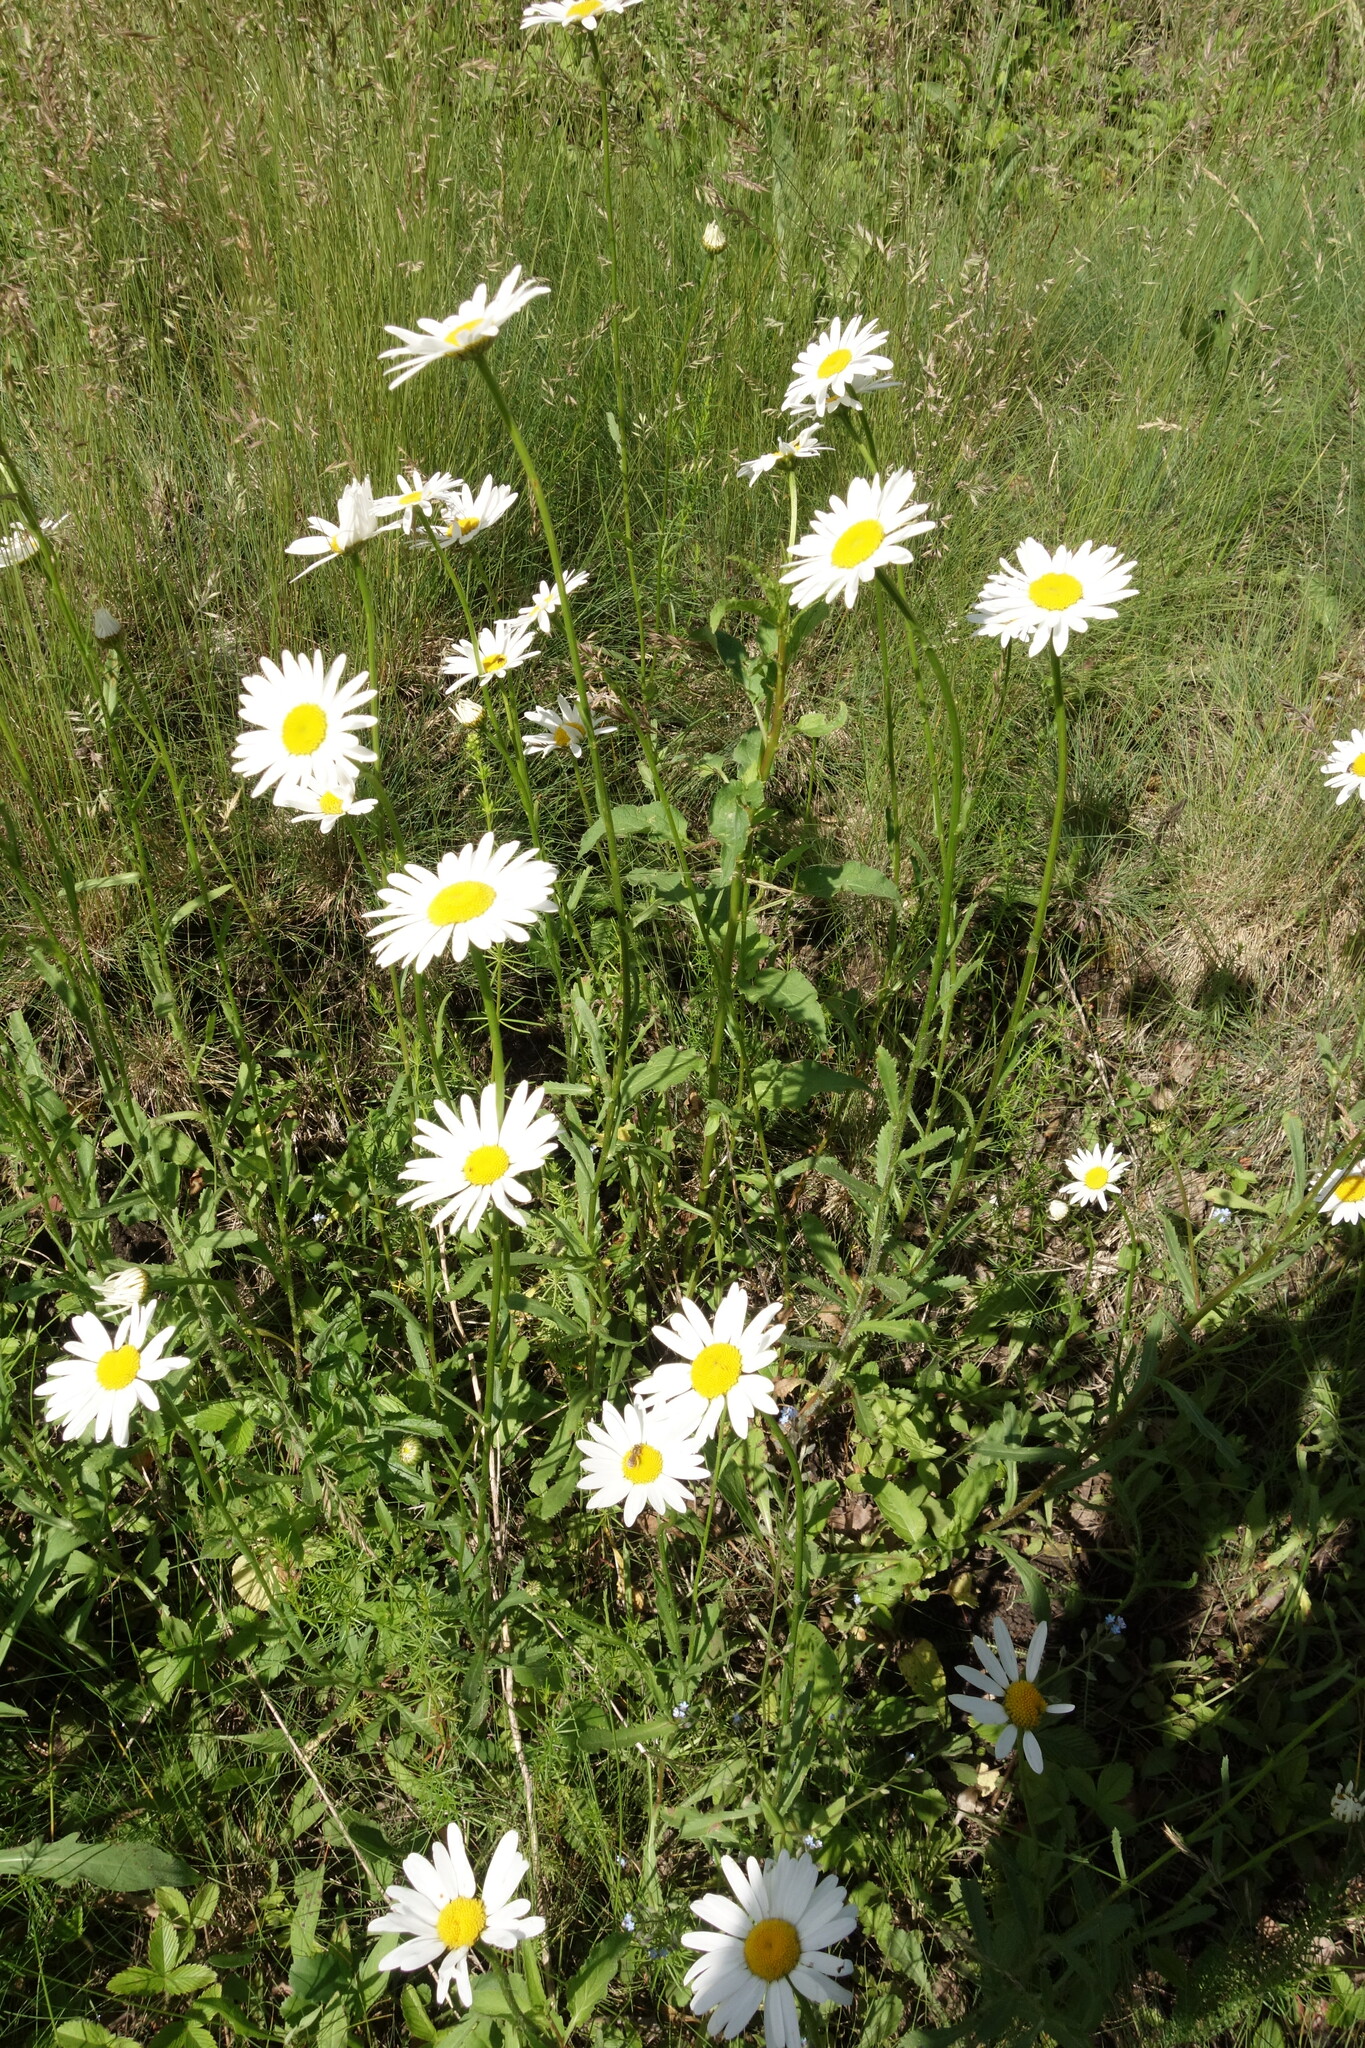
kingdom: Plantae
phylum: Tracheophyta
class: Magnoliopsida
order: Asterales
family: Asteraceae
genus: Leucanthemum
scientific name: Leucanthemum vulgare
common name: Oxeye daisy
